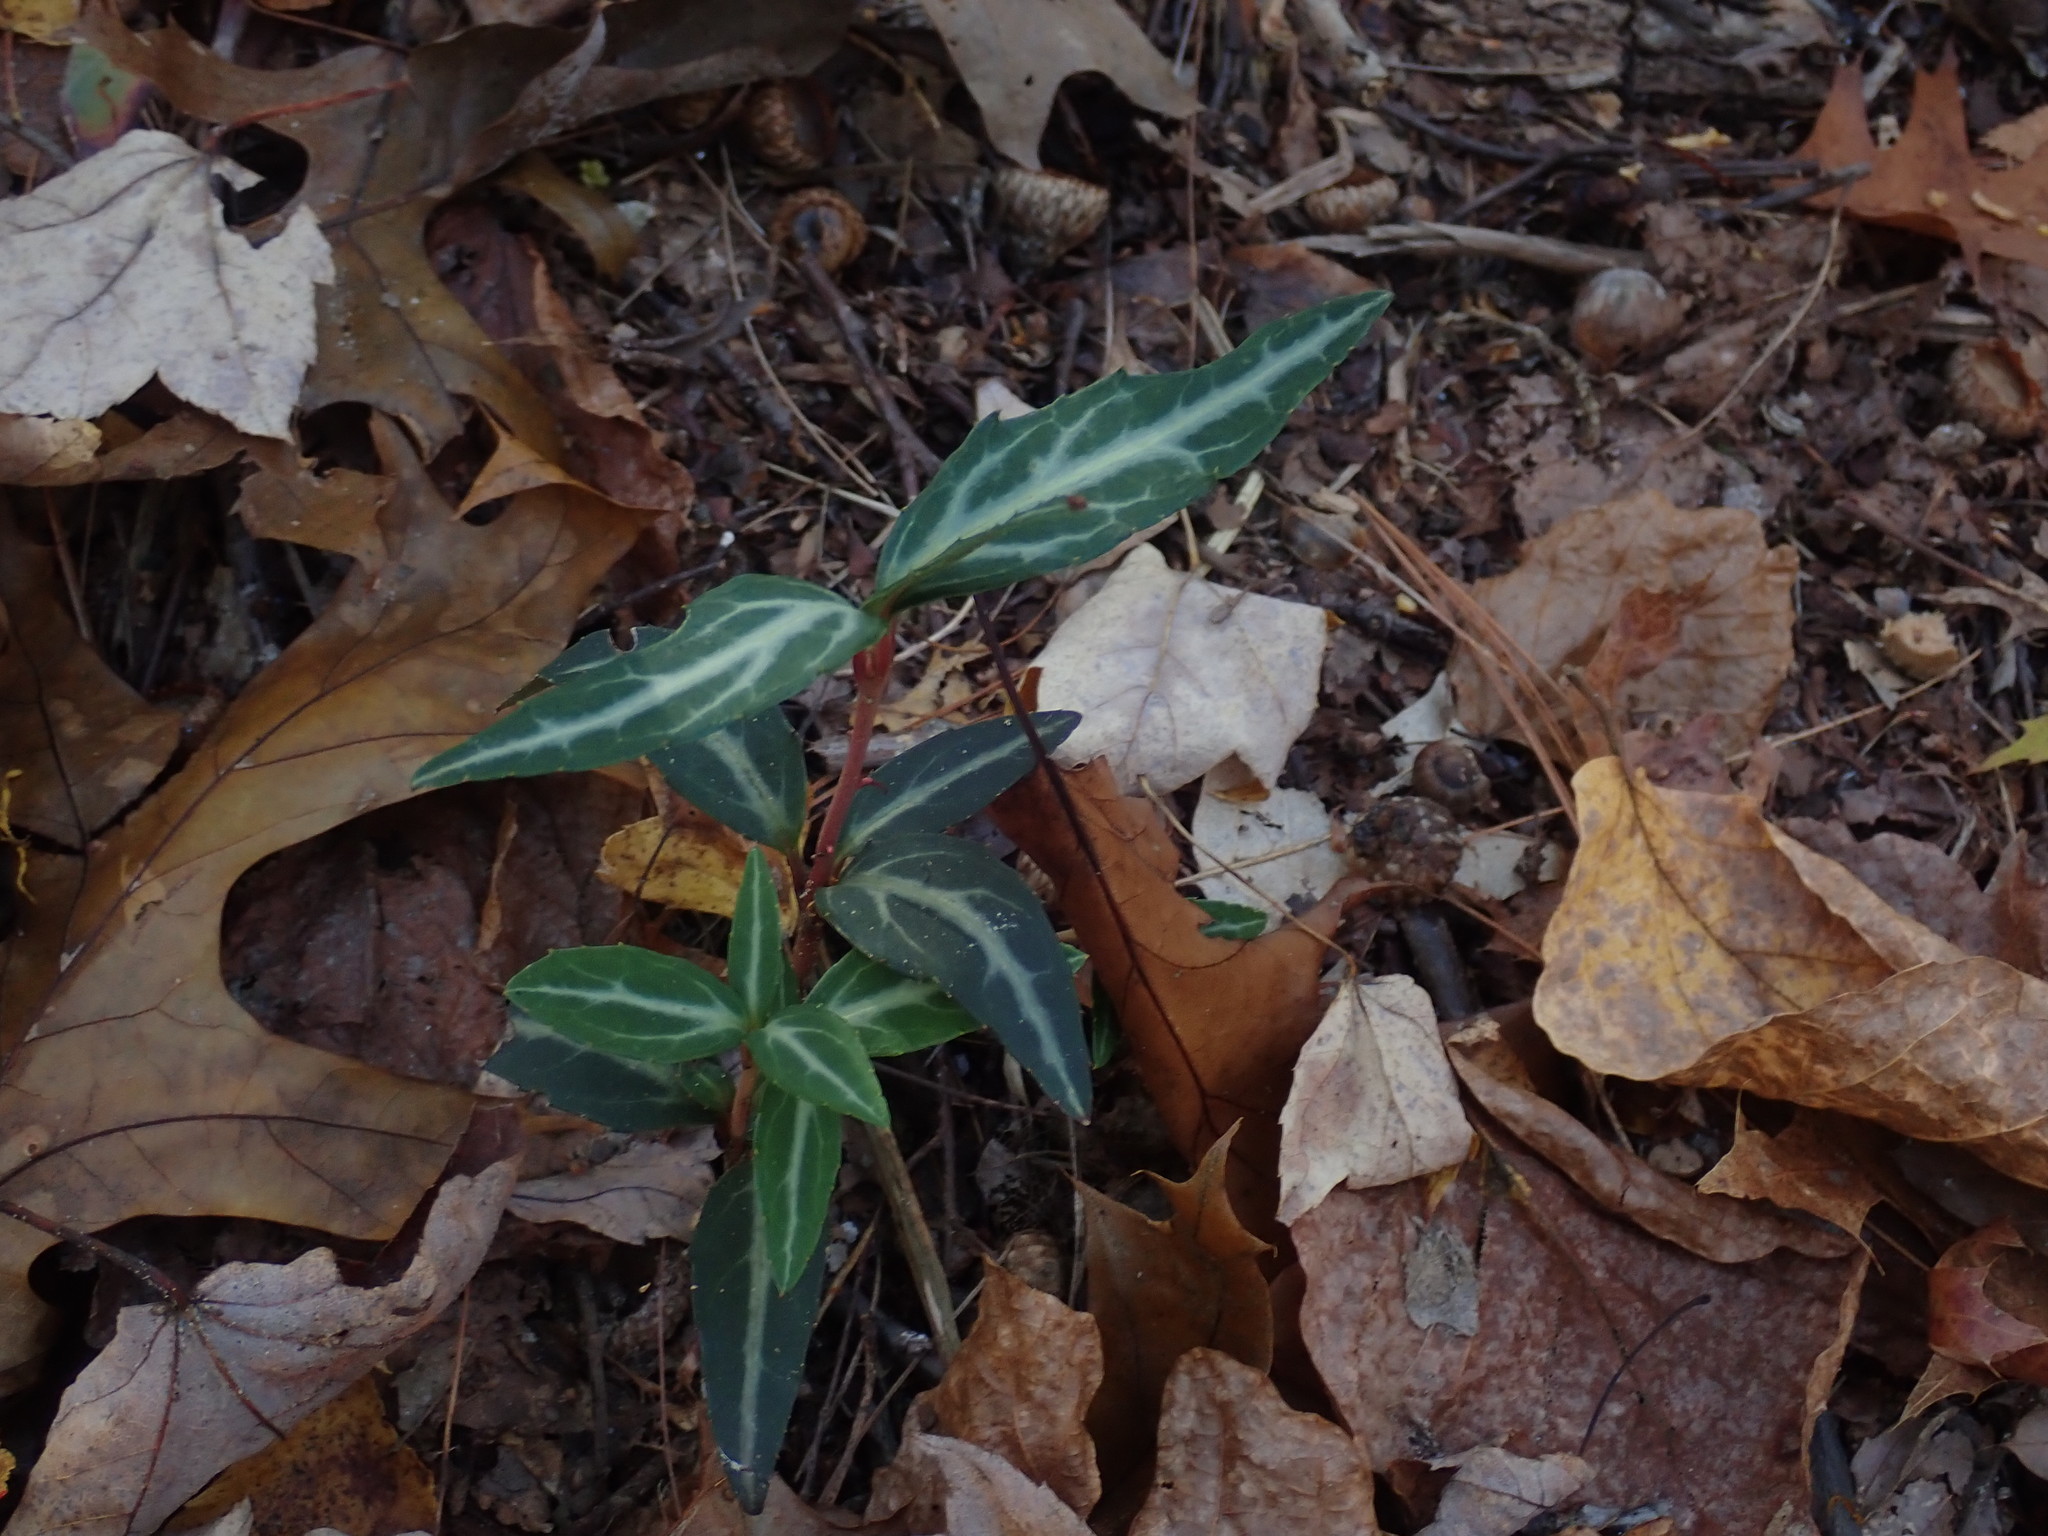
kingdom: Plantae
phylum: Tracheophyta
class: Magnoliopsida
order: Ericales
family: Ericaceae
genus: Chimaphila
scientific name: Chimaphila maculata
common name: Spotted pipsissewa
